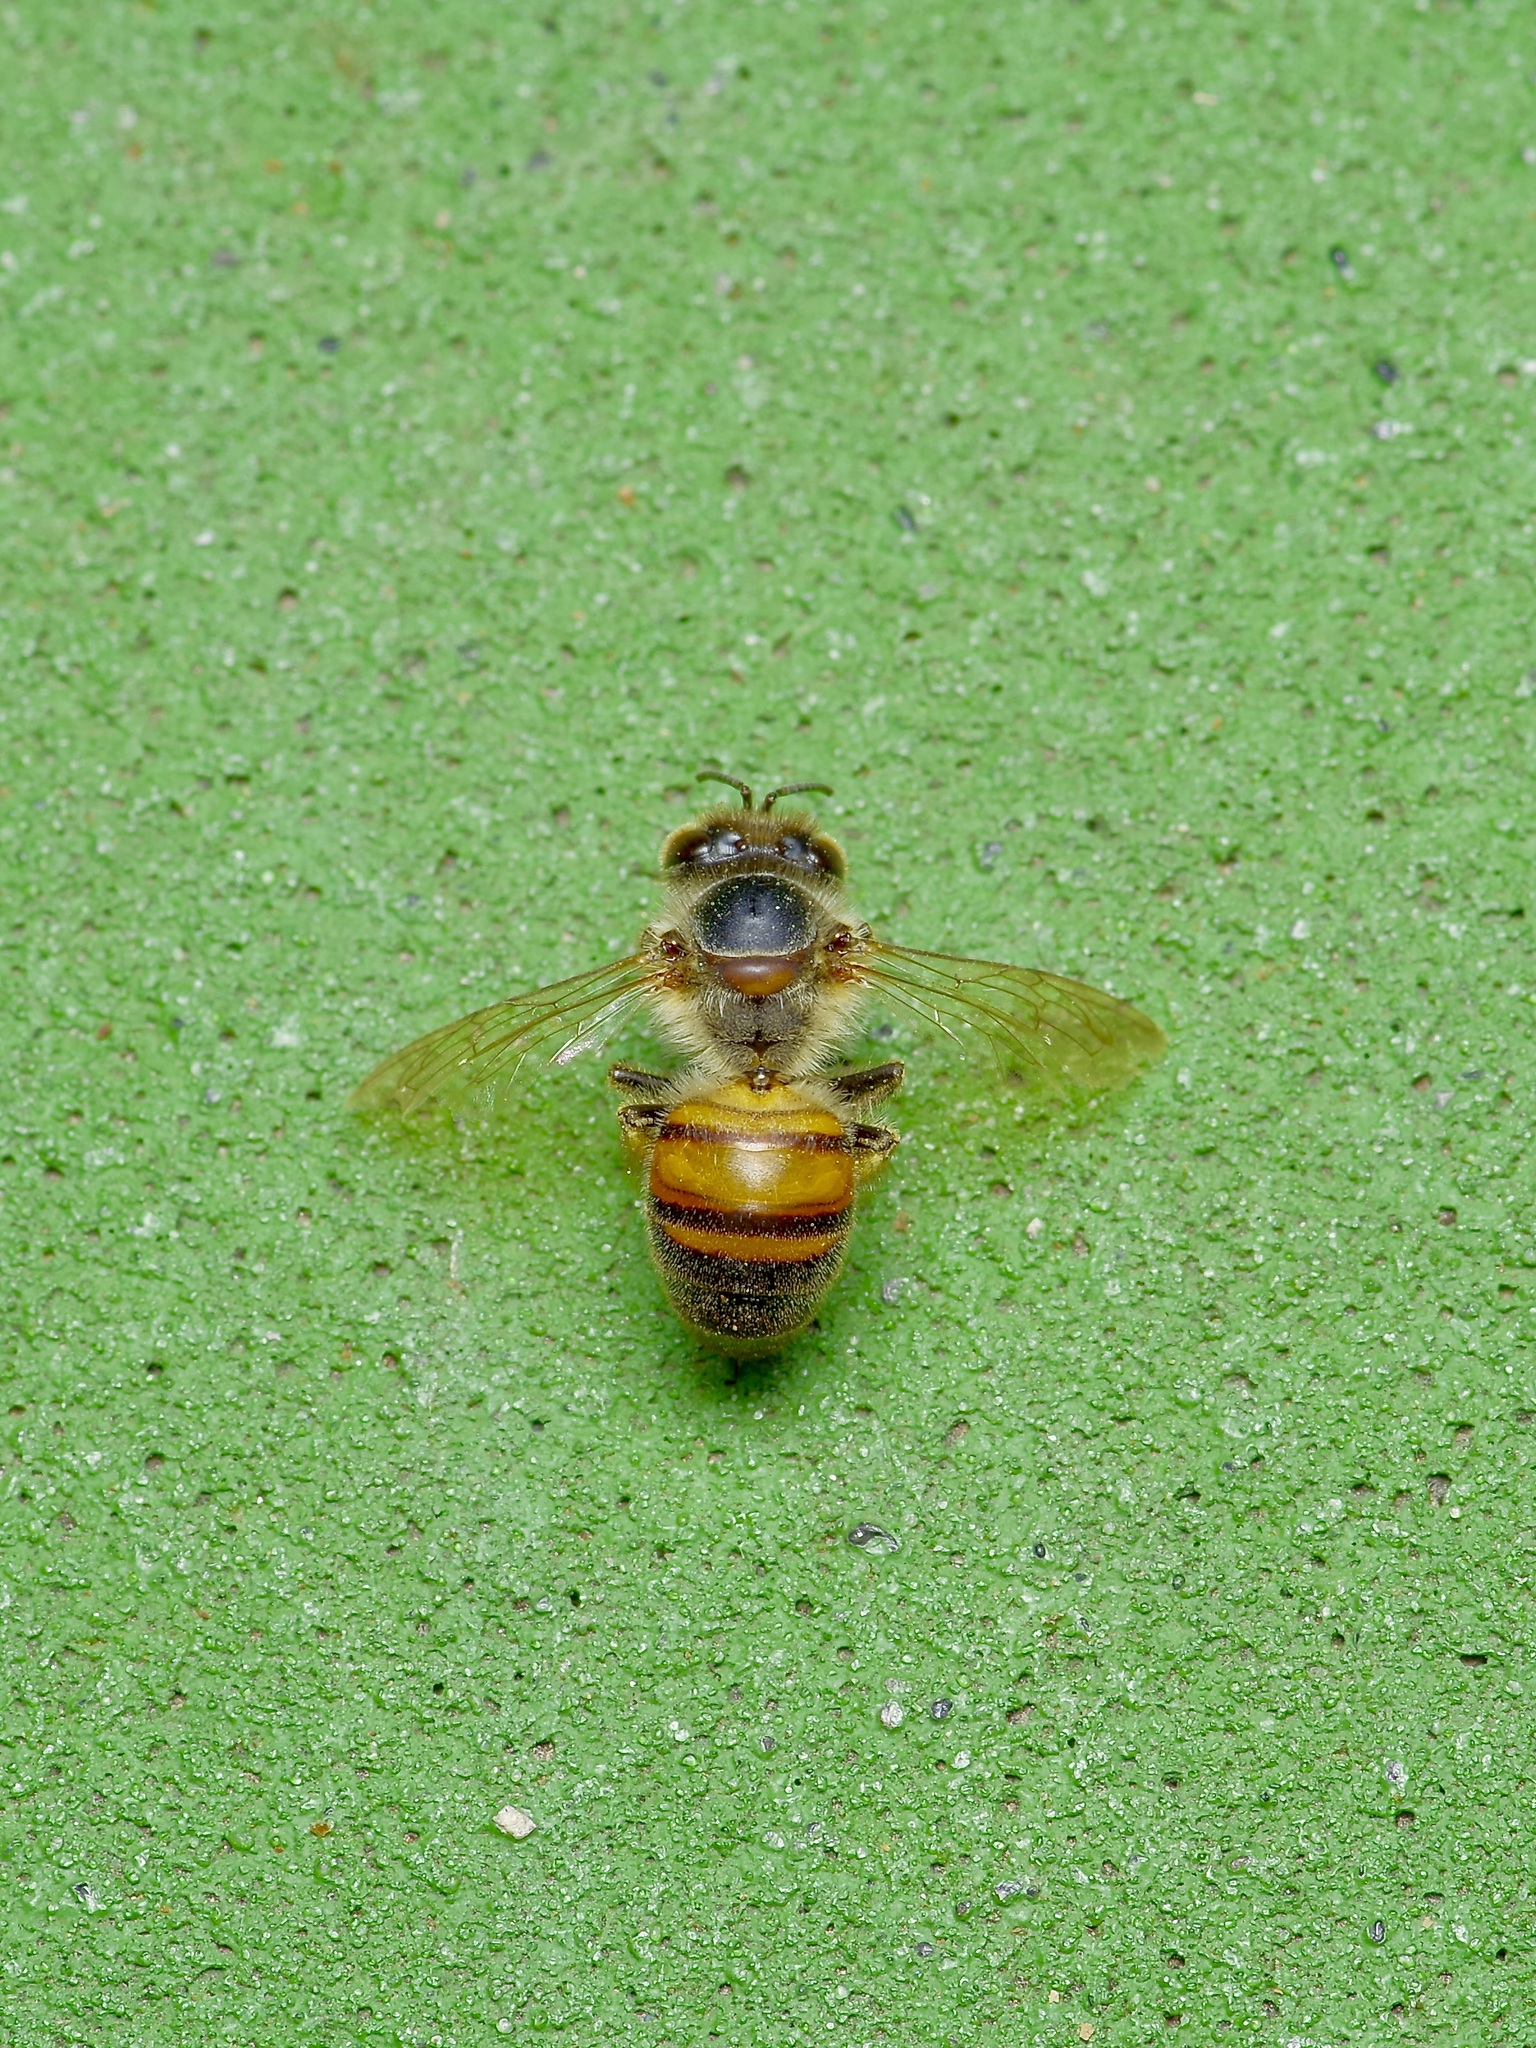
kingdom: Animalia
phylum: Arthropoda
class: Insecta
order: Hymenoptera
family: Apidae
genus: Apis
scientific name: Apis mellifera
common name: Honey bee
